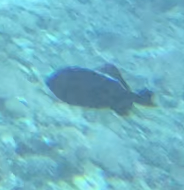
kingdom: Animalia
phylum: Chordata
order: Tetraodontiformes
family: Balistidae
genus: Melichthys
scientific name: Melichthys niger
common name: Black durgon
